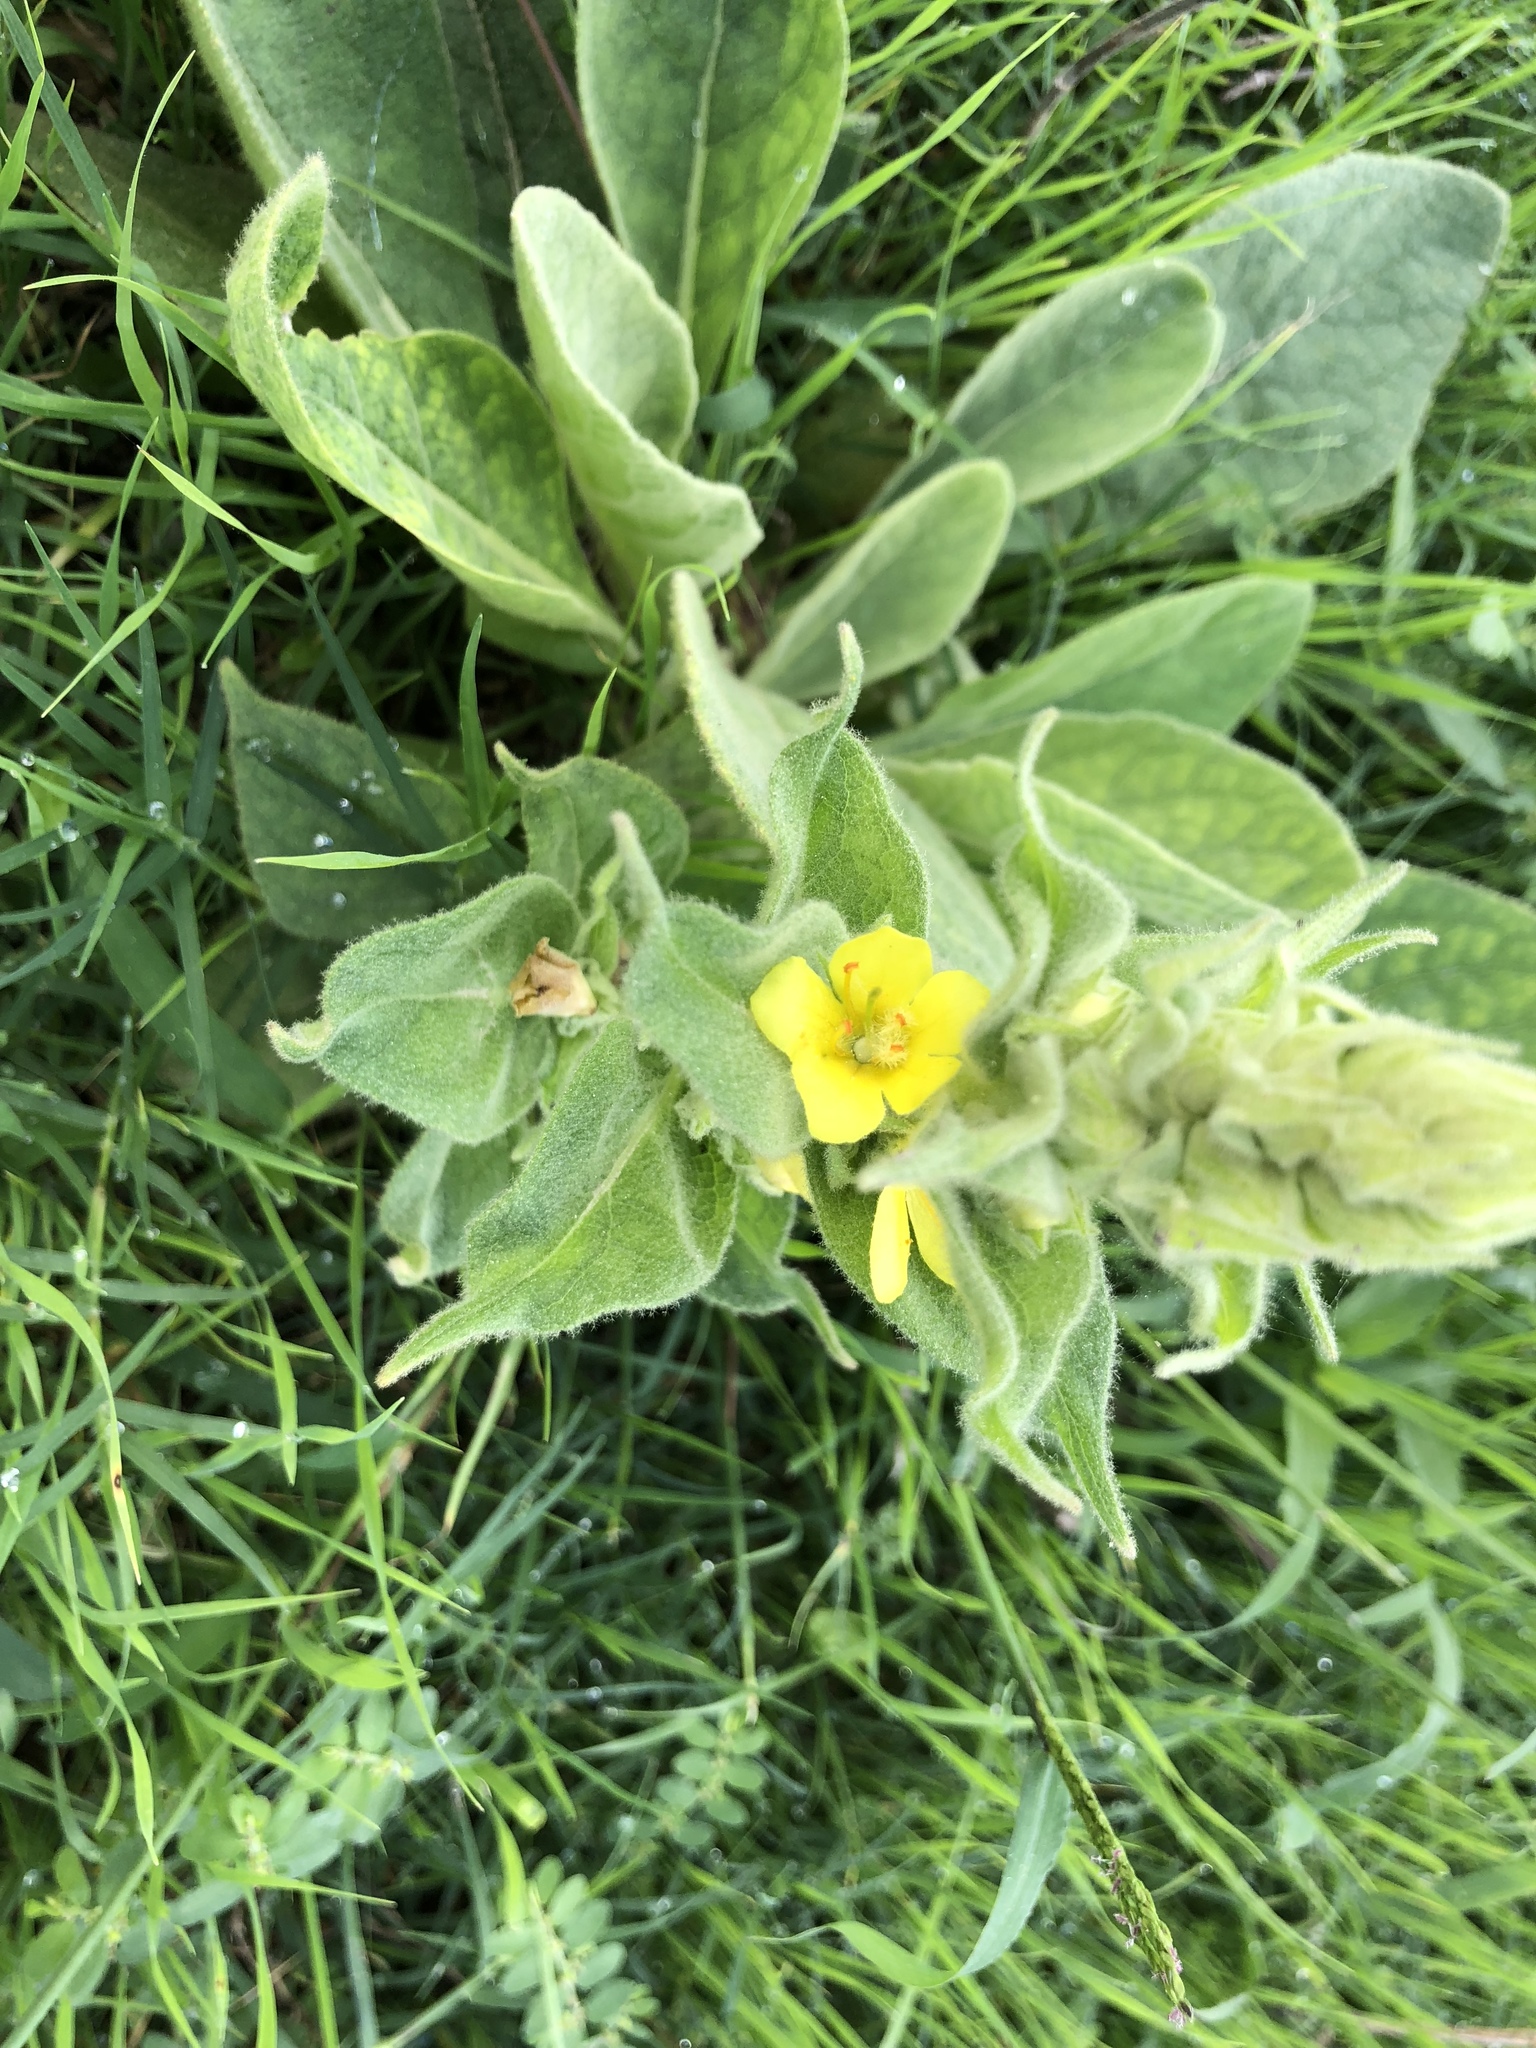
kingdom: Plantae
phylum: Tracheophyta
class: Magnoliopsida
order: Lamiales
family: Scrophulariaceae
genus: Verbascum
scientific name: Verbascum thapsus
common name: Common mullein
